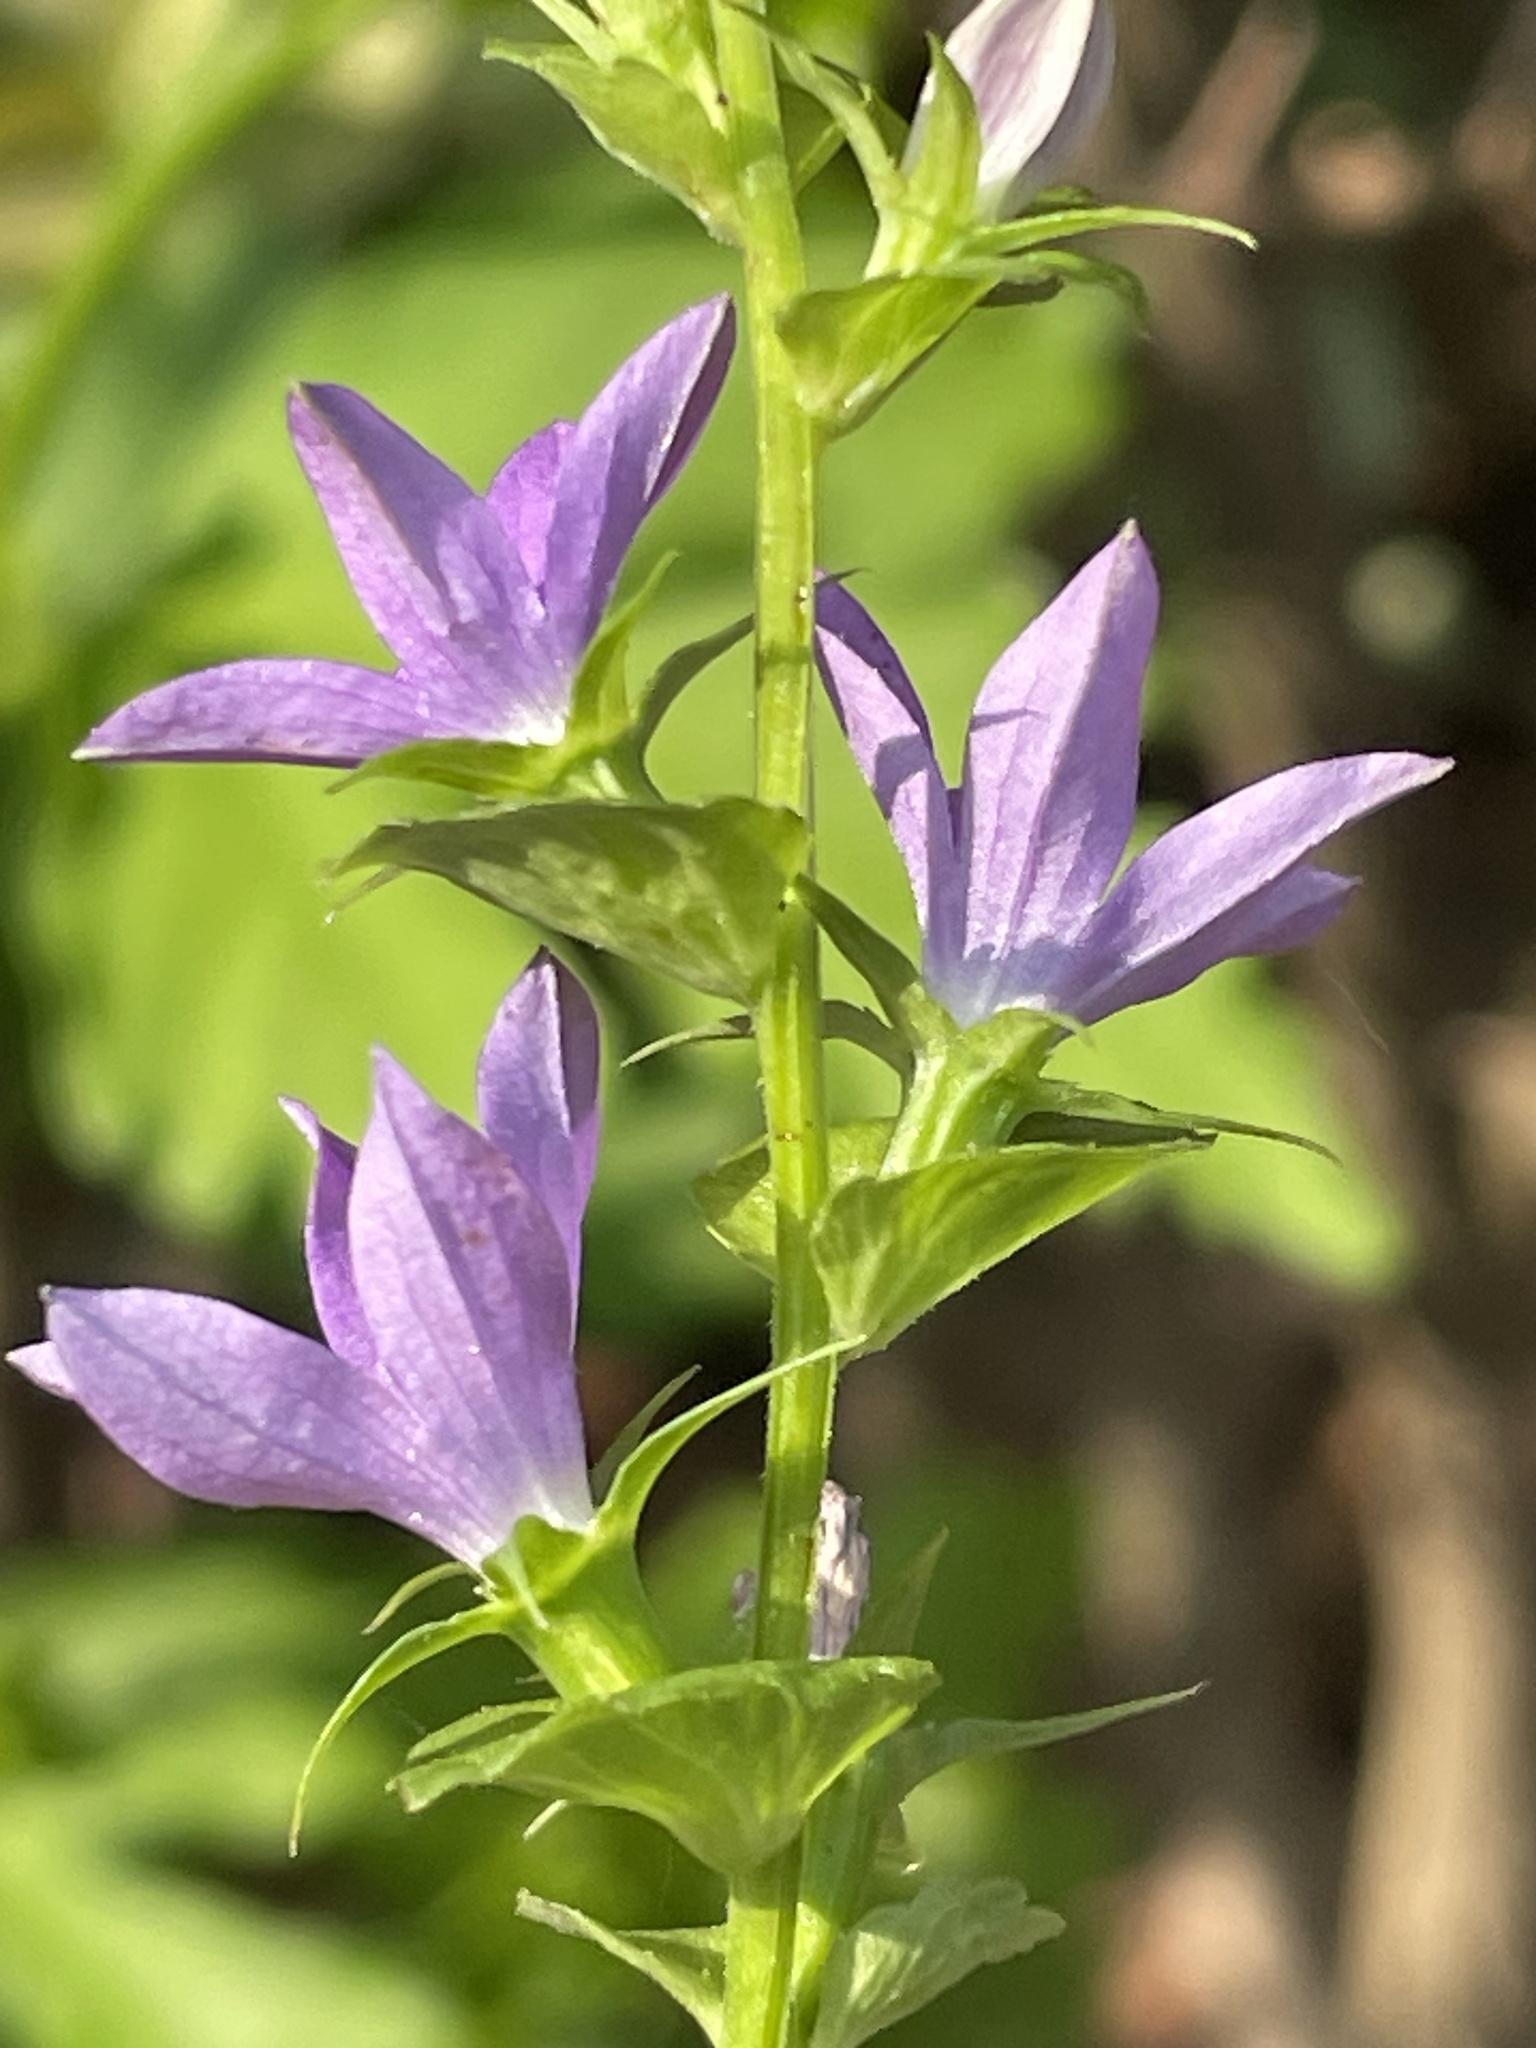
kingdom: Plantae
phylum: Tracheophyta
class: Magnoliopsida
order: Asterales
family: Campanulaceae
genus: Triodanis
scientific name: Triodanis perfoliata
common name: Clasping venus' looking-glass
